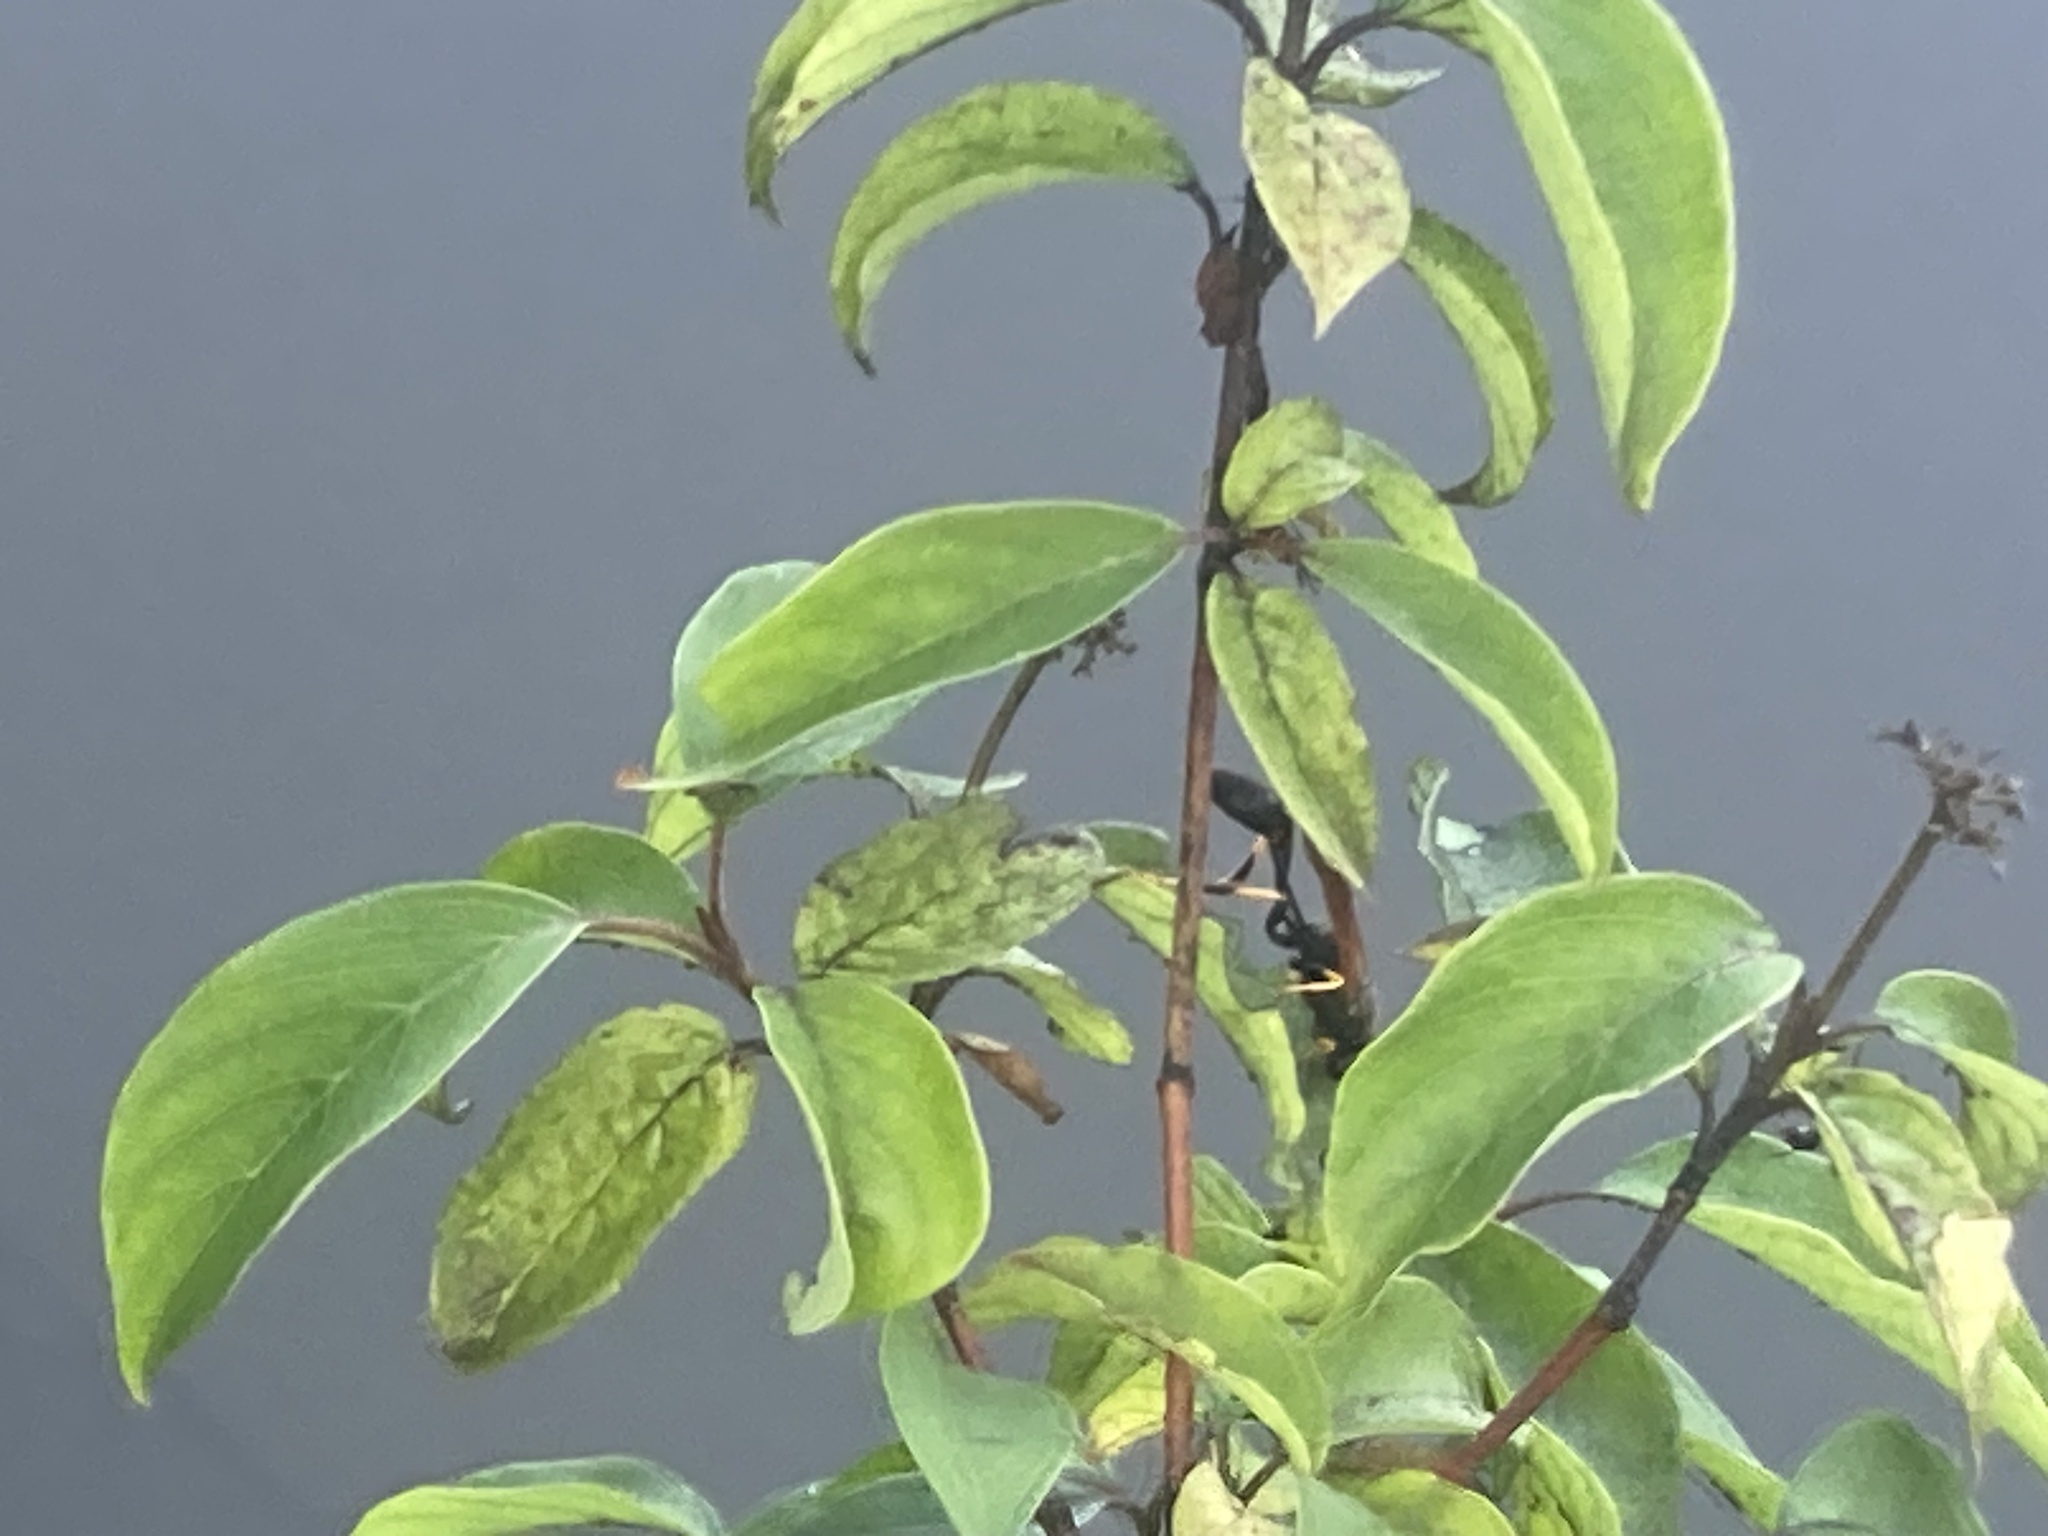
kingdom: Animalia
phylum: Arthropoda
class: Insecta
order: Hymenoptera
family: Sphecidae
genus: Sceliphron
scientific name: Sceliphron caementarium
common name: Mud dauber
